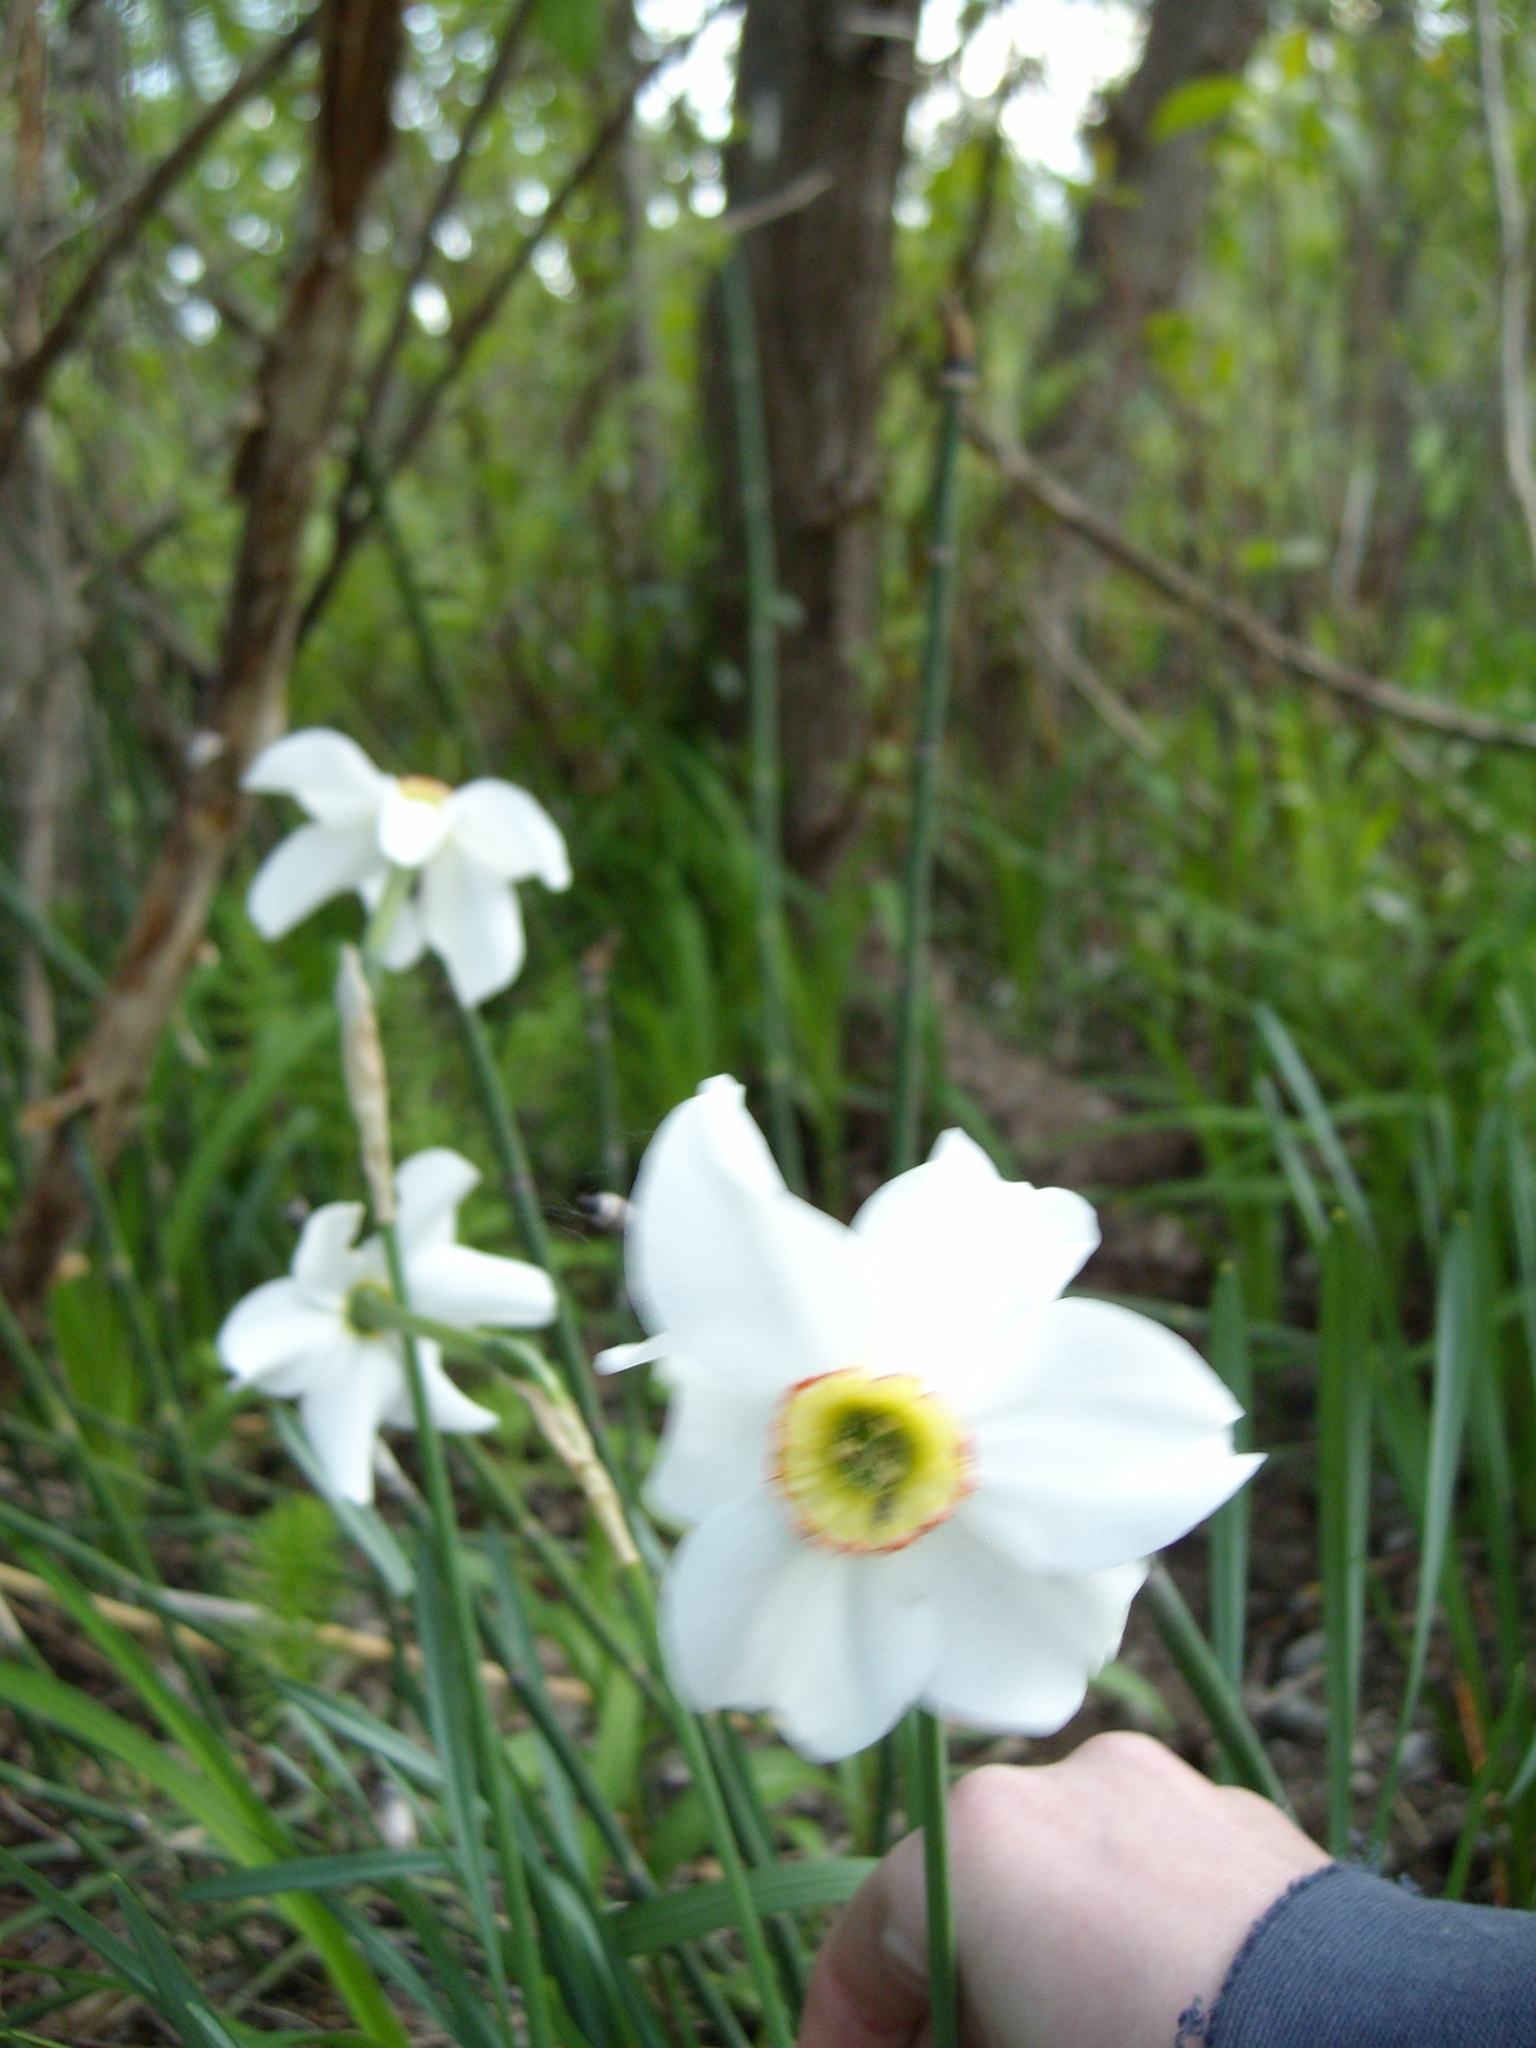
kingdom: Plantae
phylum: Tracheophyta
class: Liliopsida
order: Asparagales
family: Amaryllidaceae
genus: Narcissus
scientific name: Narcissus poeticus
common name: Pheasant's-eye daffodil
